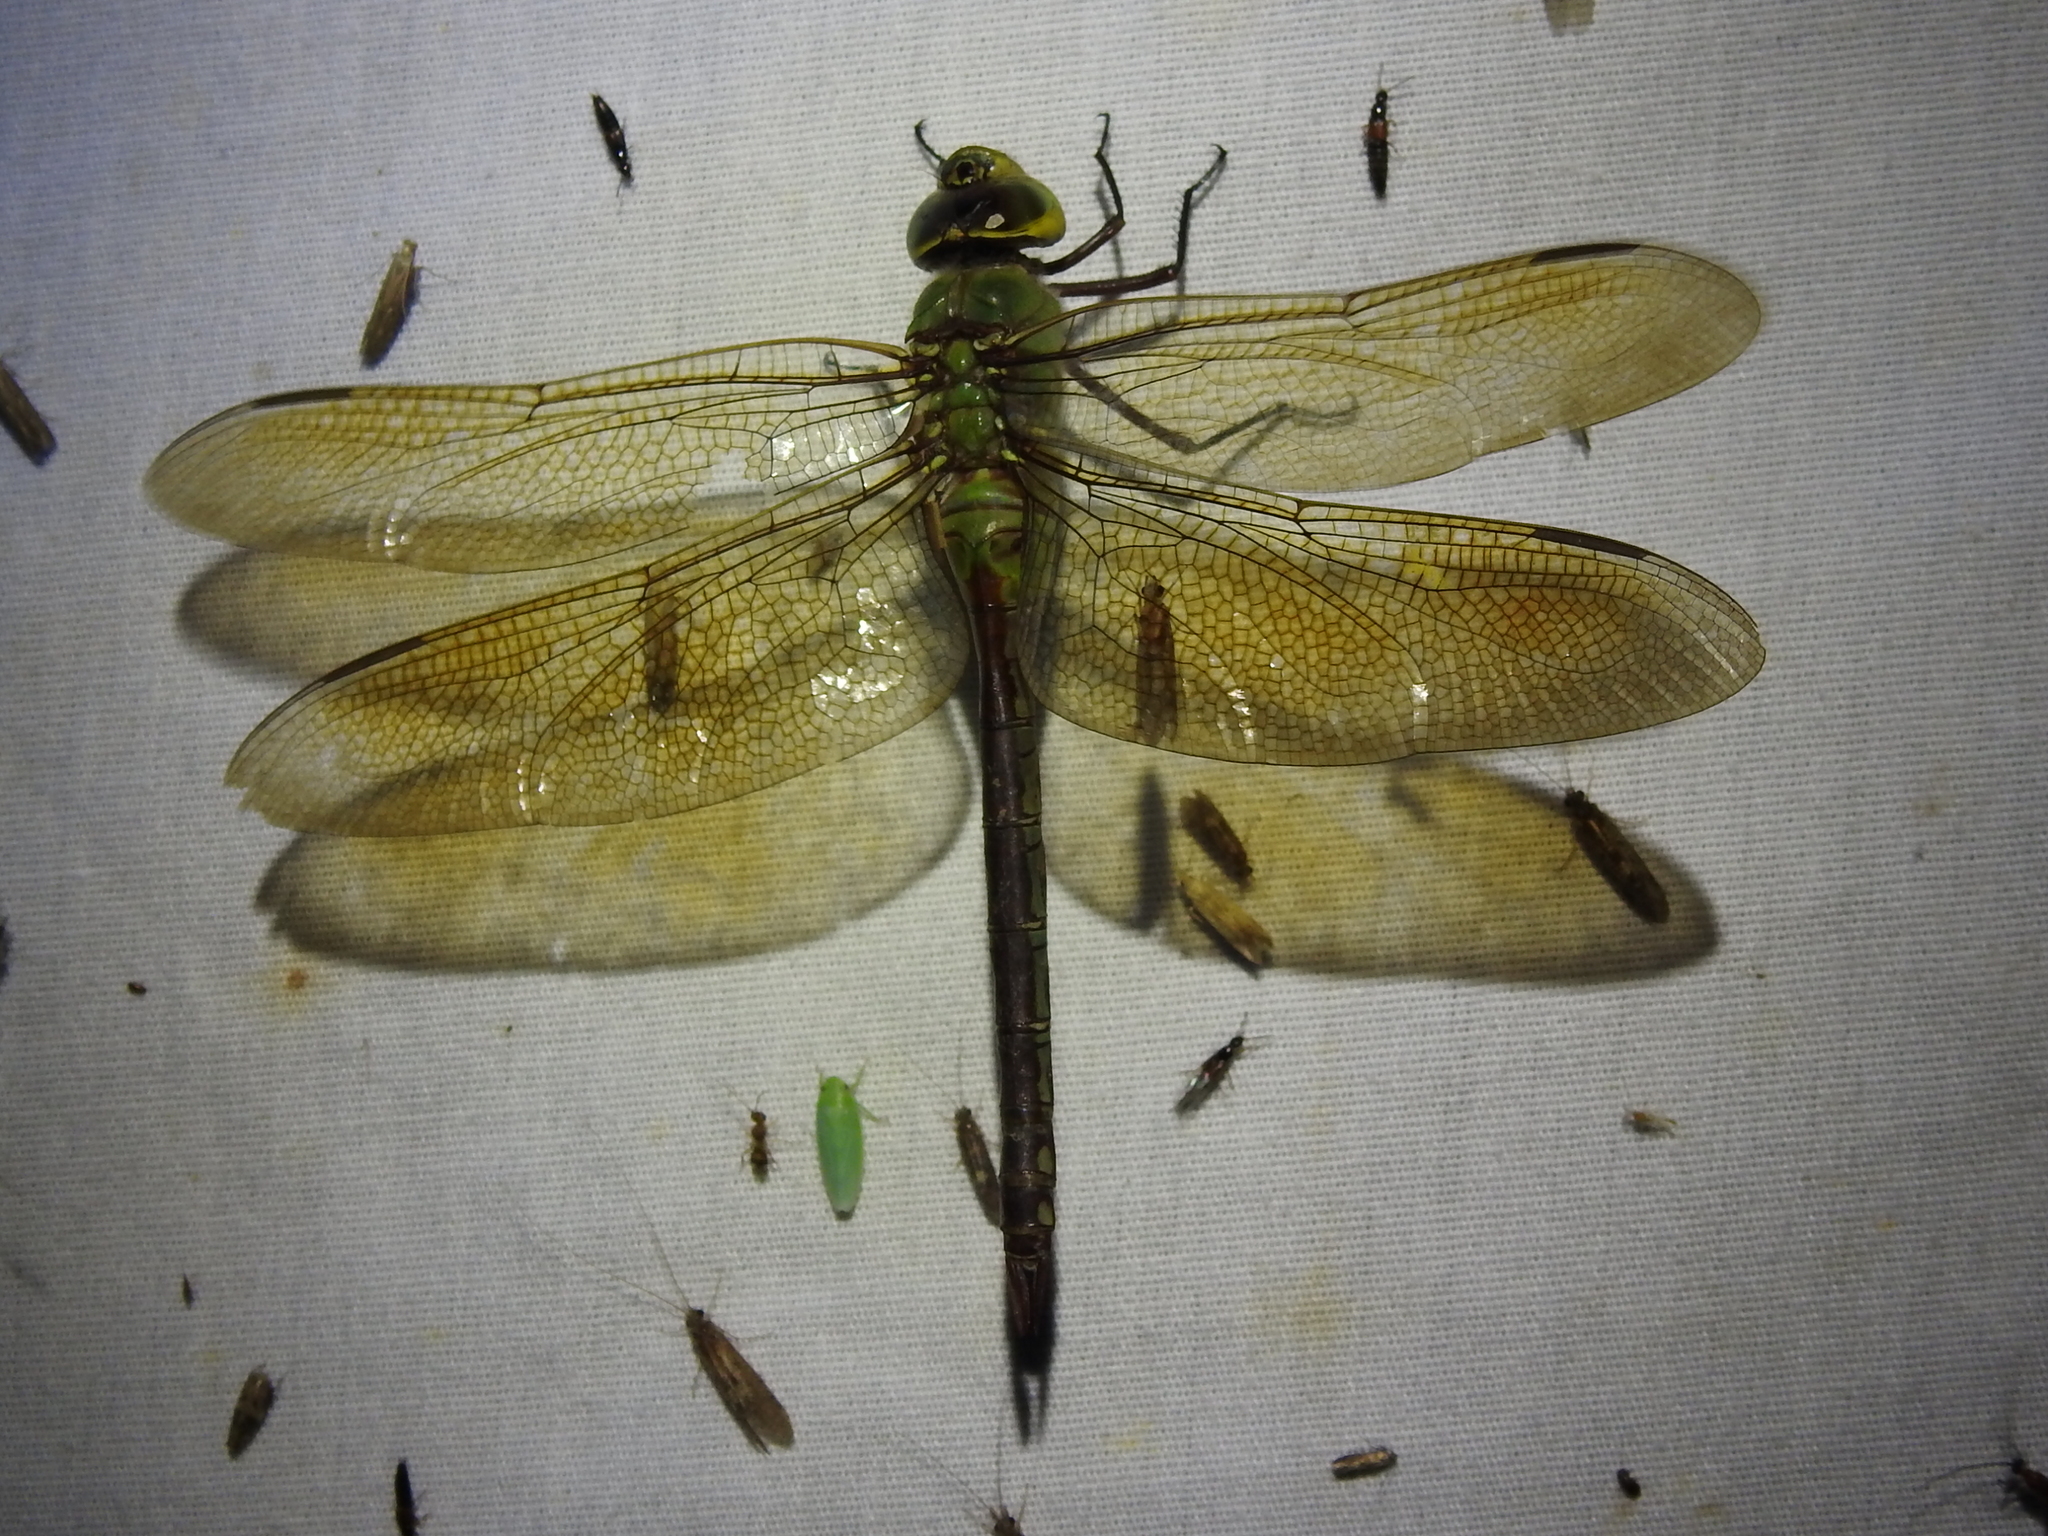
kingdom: Animalia
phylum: Arthropoda
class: Insecta
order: Odonata
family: Aeshnidae
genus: Anax
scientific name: Anax junius
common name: Common green darner
